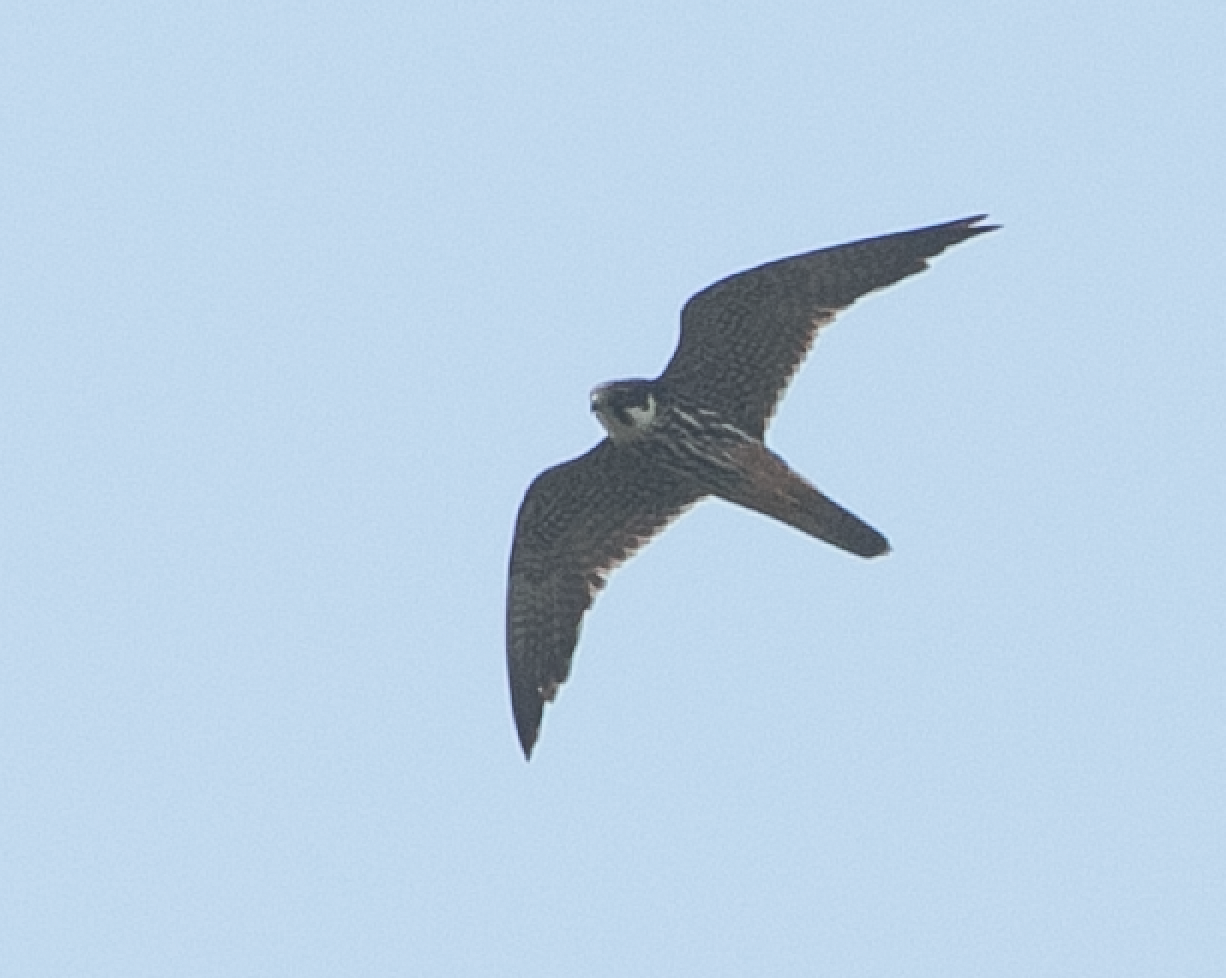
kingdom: Animalia
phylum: Chordata
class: Aves
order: Falconiformes
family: Falconidae
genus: Falco
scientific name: Falco subbuteo
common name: Eurasian hobby
